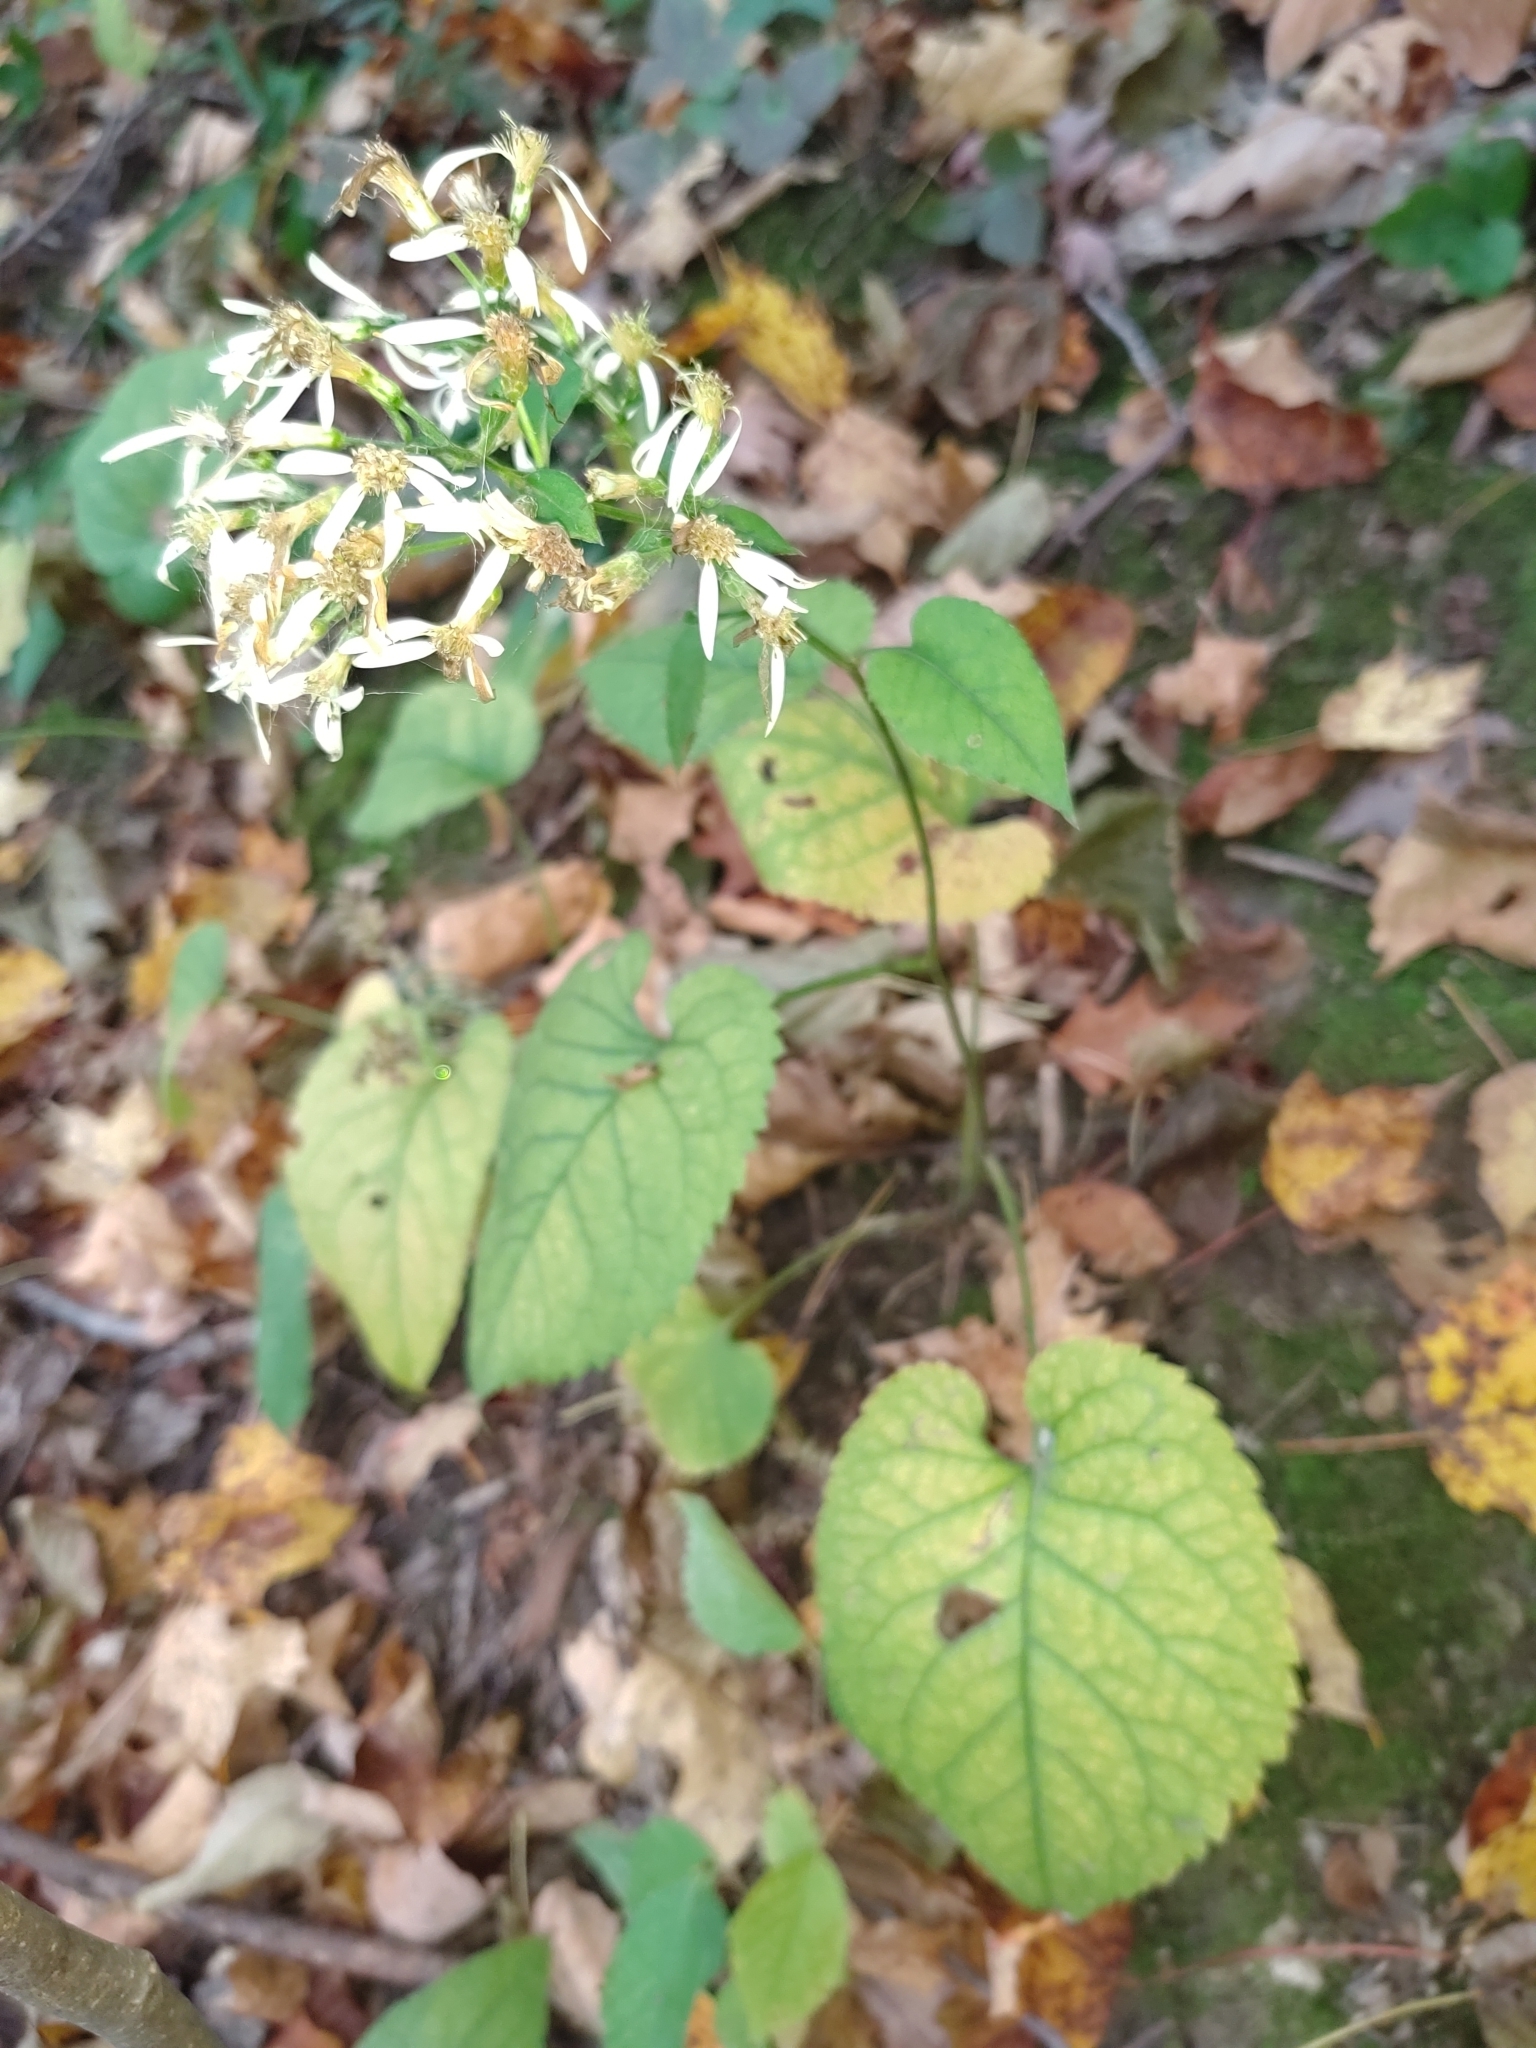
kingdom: Plantae
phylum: Tracheophyta
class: Magnoliopsida
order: Asterales
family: Asteraceae
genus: Eurybia
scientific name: Eurybia schreberi
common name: Schreber's aster
